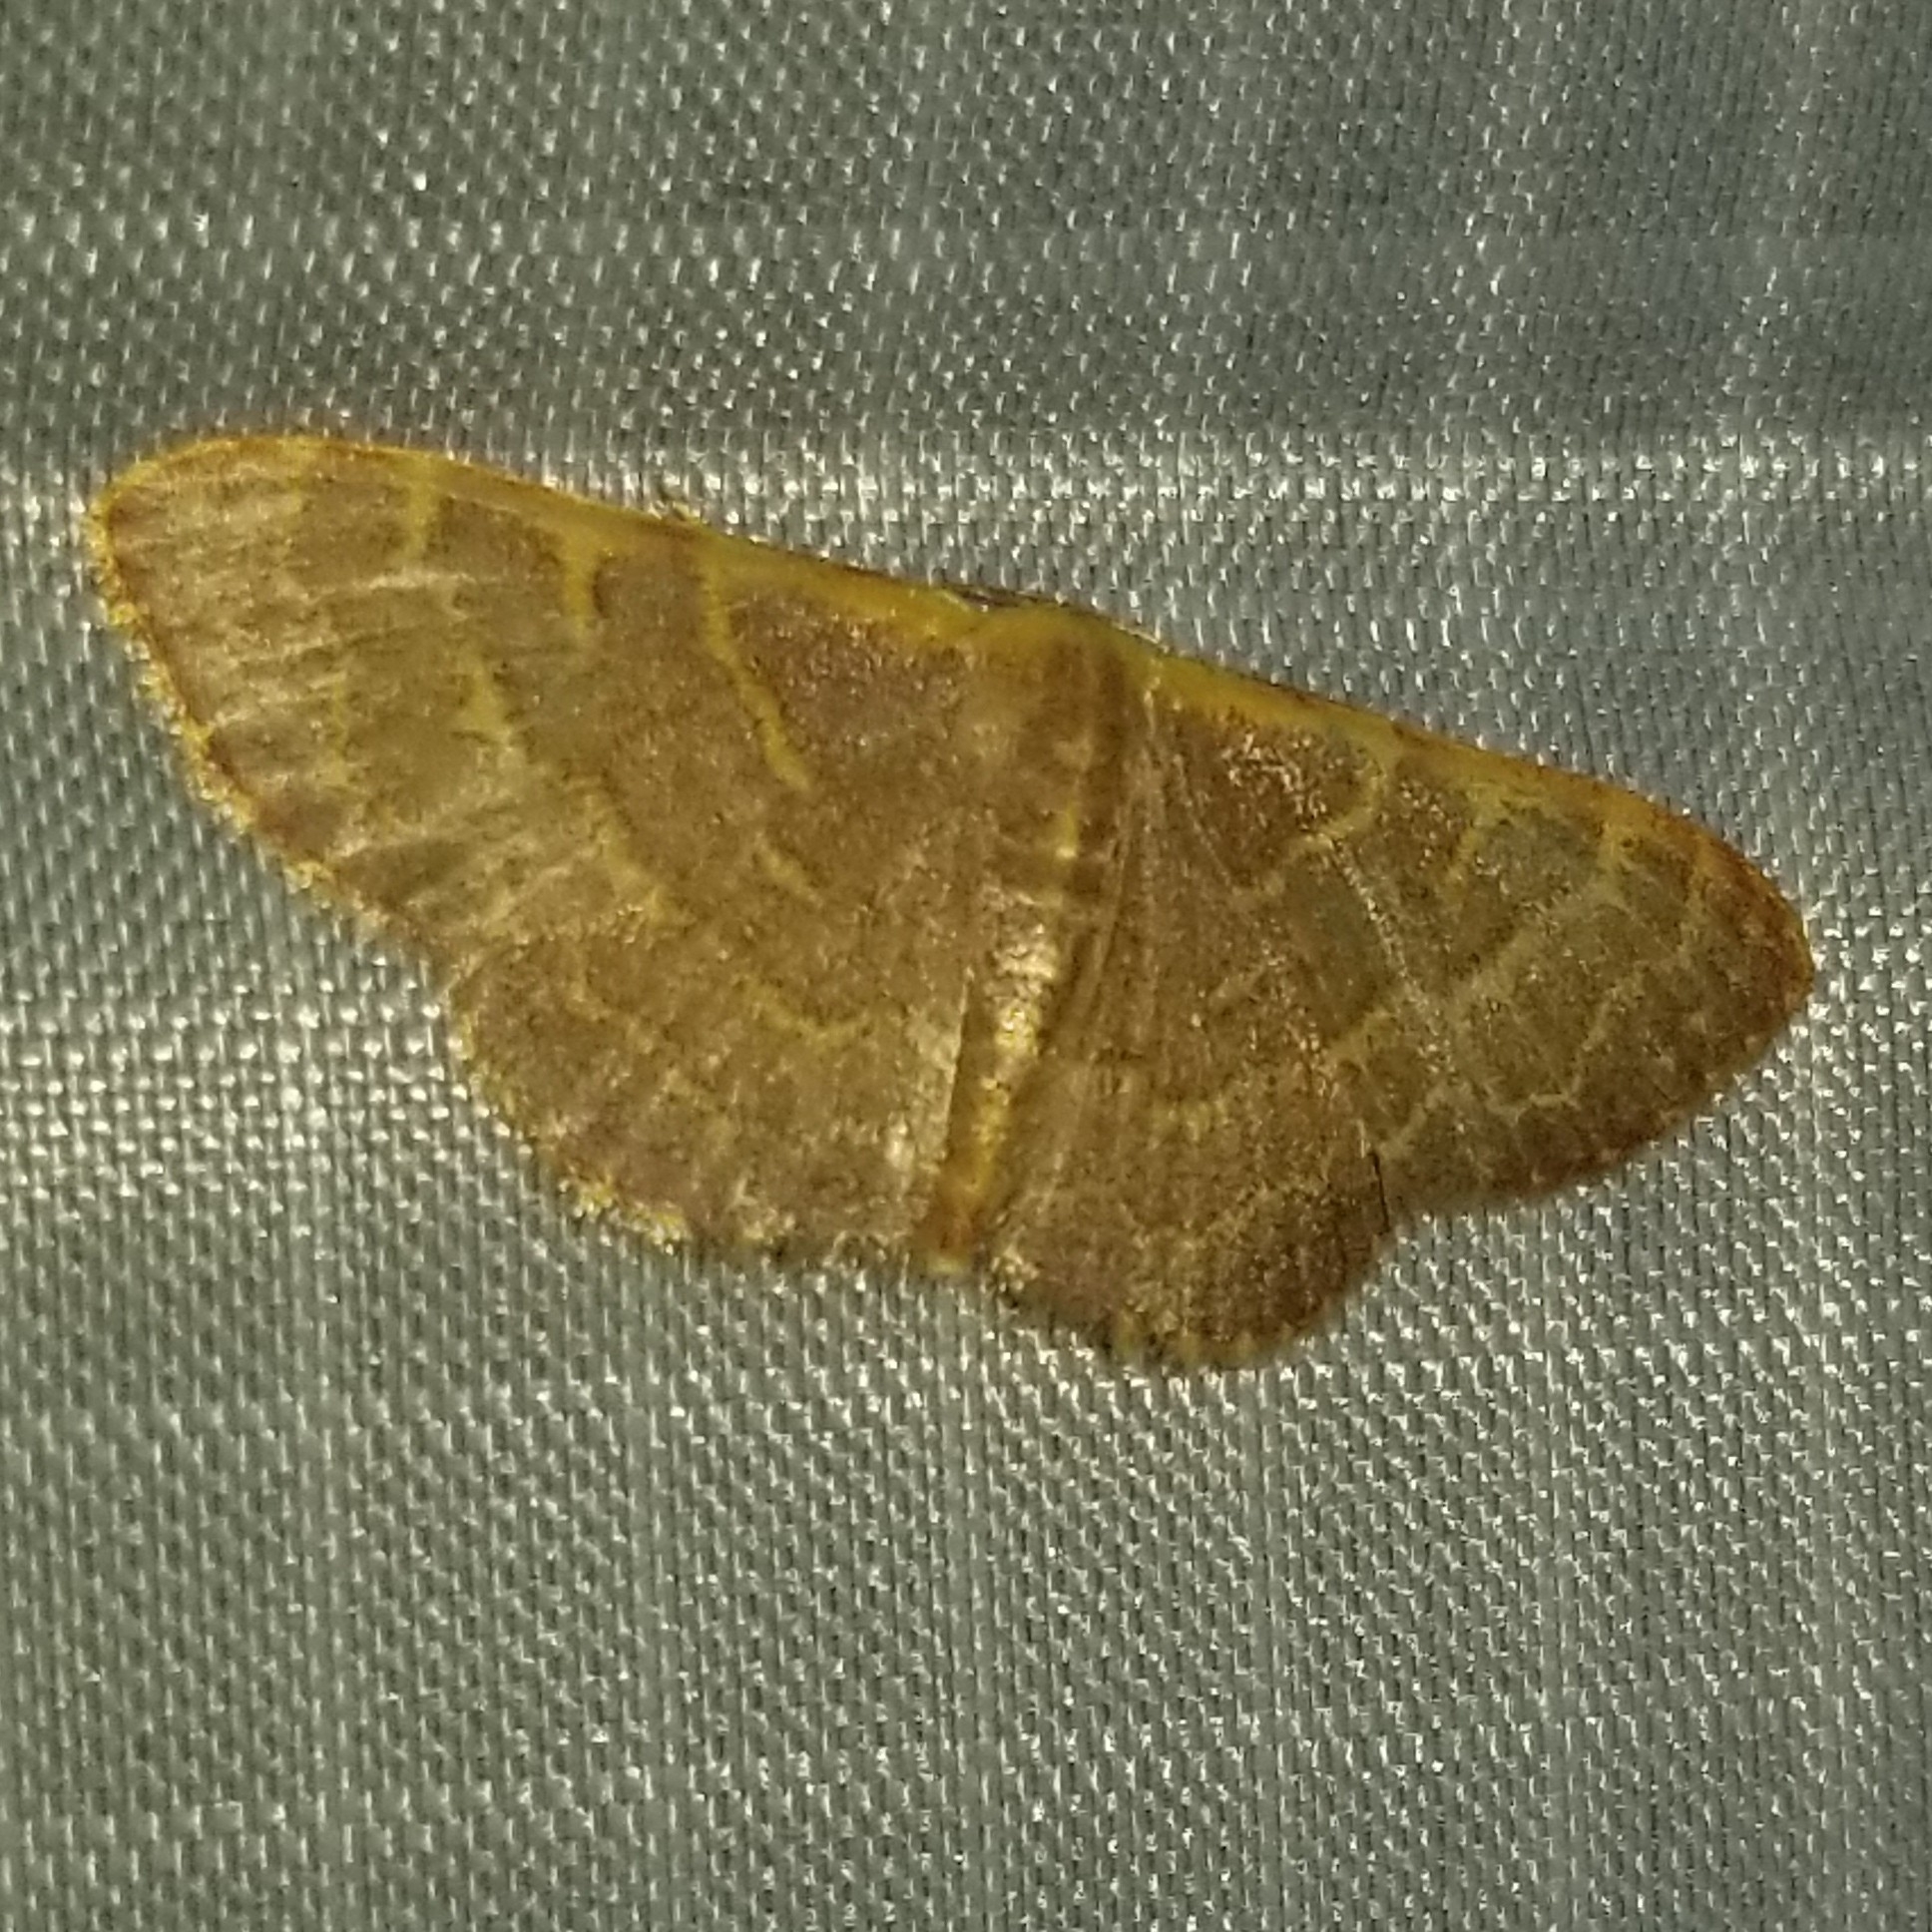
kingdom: Animalia
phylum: Arthropoda
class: Insecta
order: Lepidoptera
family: Geometridae
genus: Leptostales
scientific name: Leptostales pannaria
